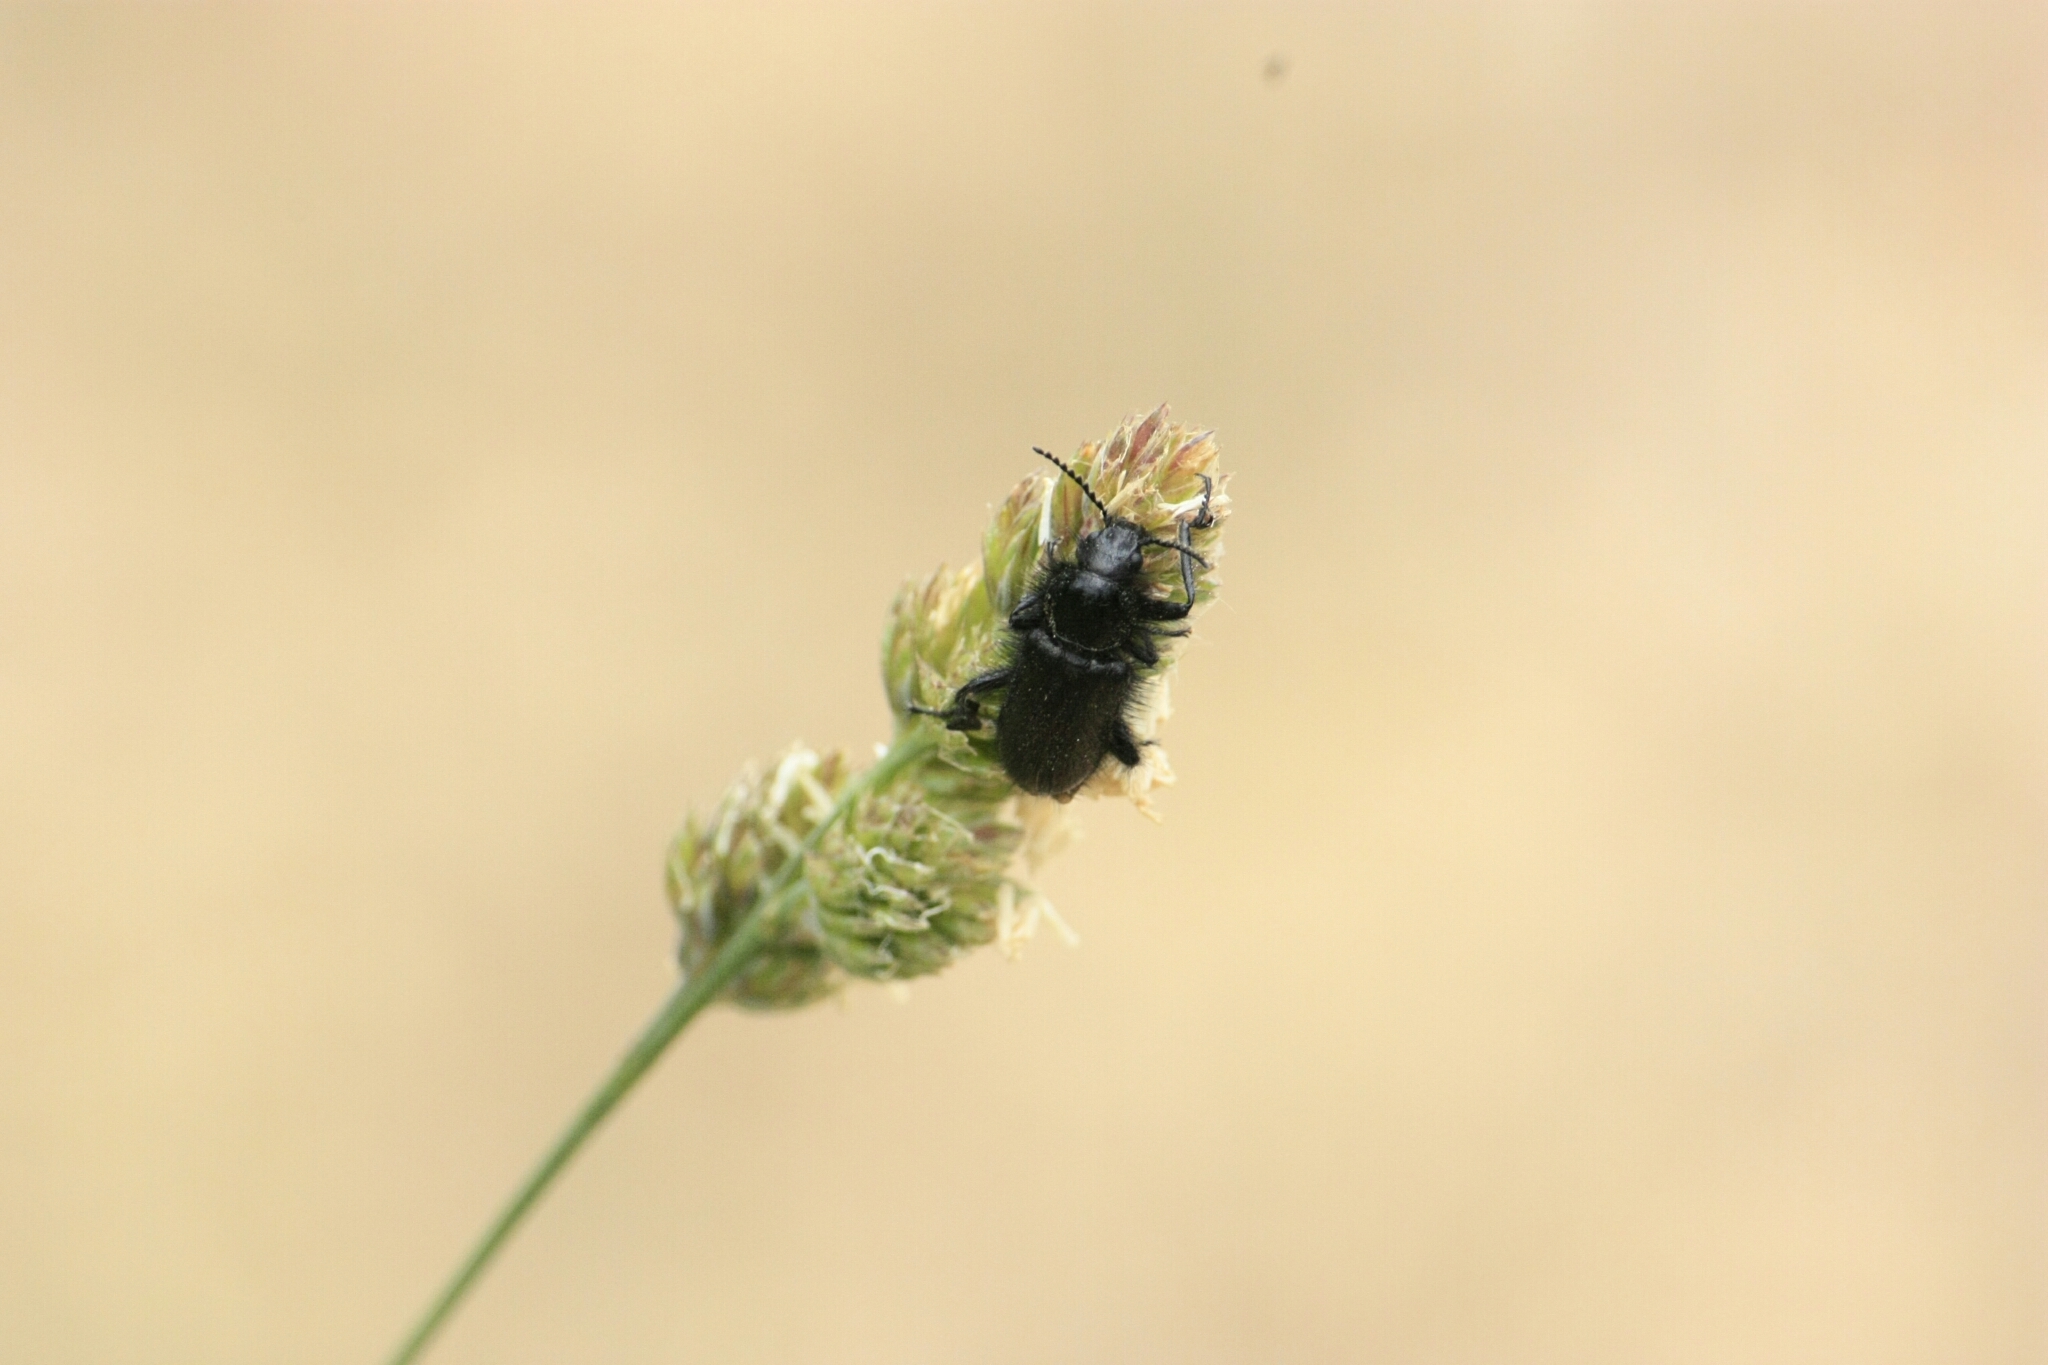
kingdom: Animalia
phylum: Arthropoda
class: Insecta
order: Coleoptera
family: Melyridae
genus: Enicopus
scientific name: Enicopus
